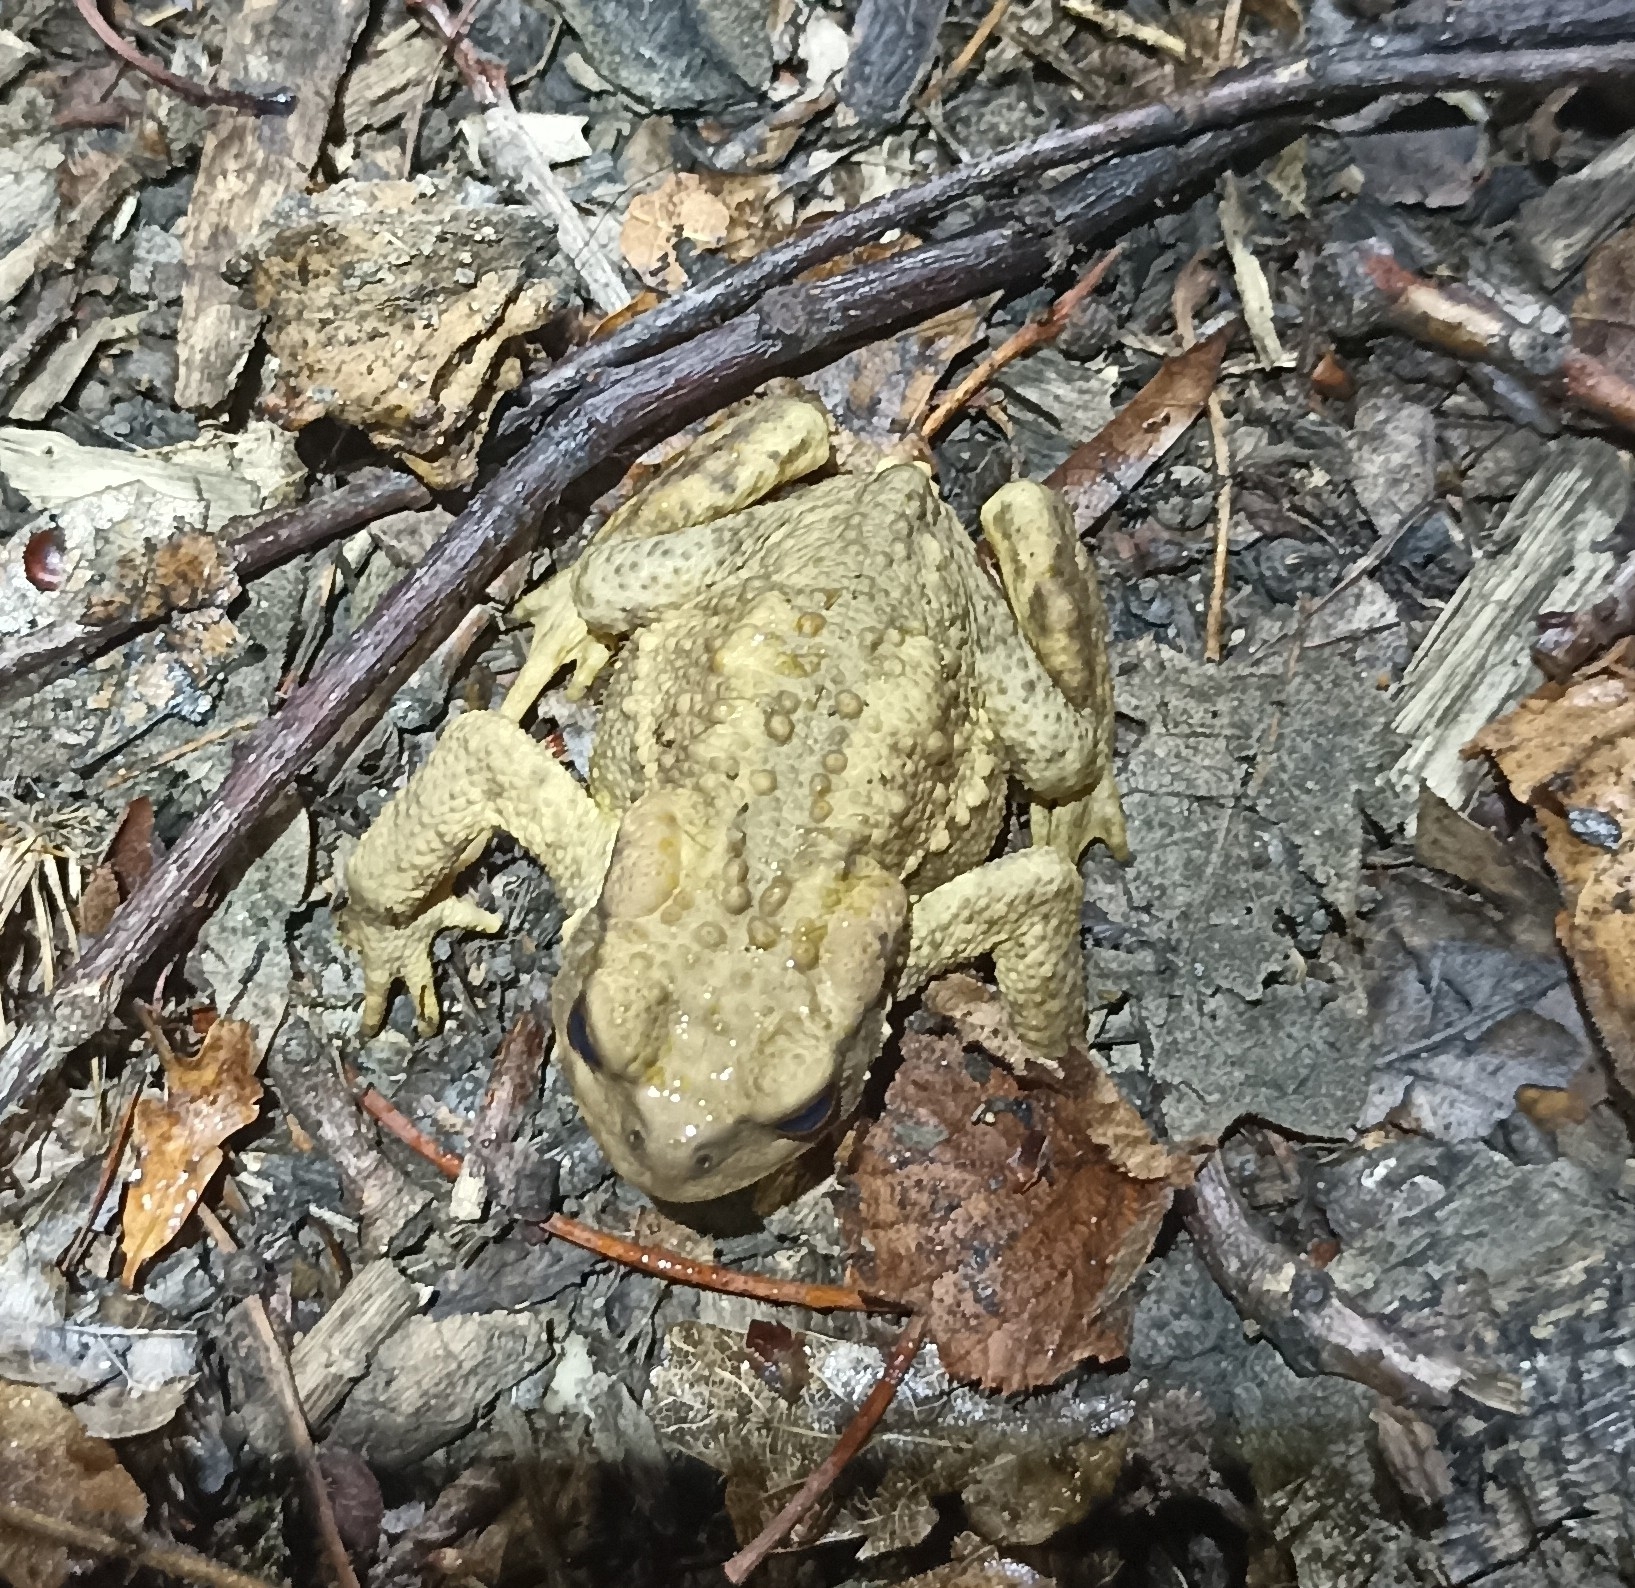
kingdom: Animalia
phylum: Chordata
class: Amphibia
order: Anura
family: Bufonidae
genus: Bufo
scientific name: Bufo spinosus
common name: Western common toad
